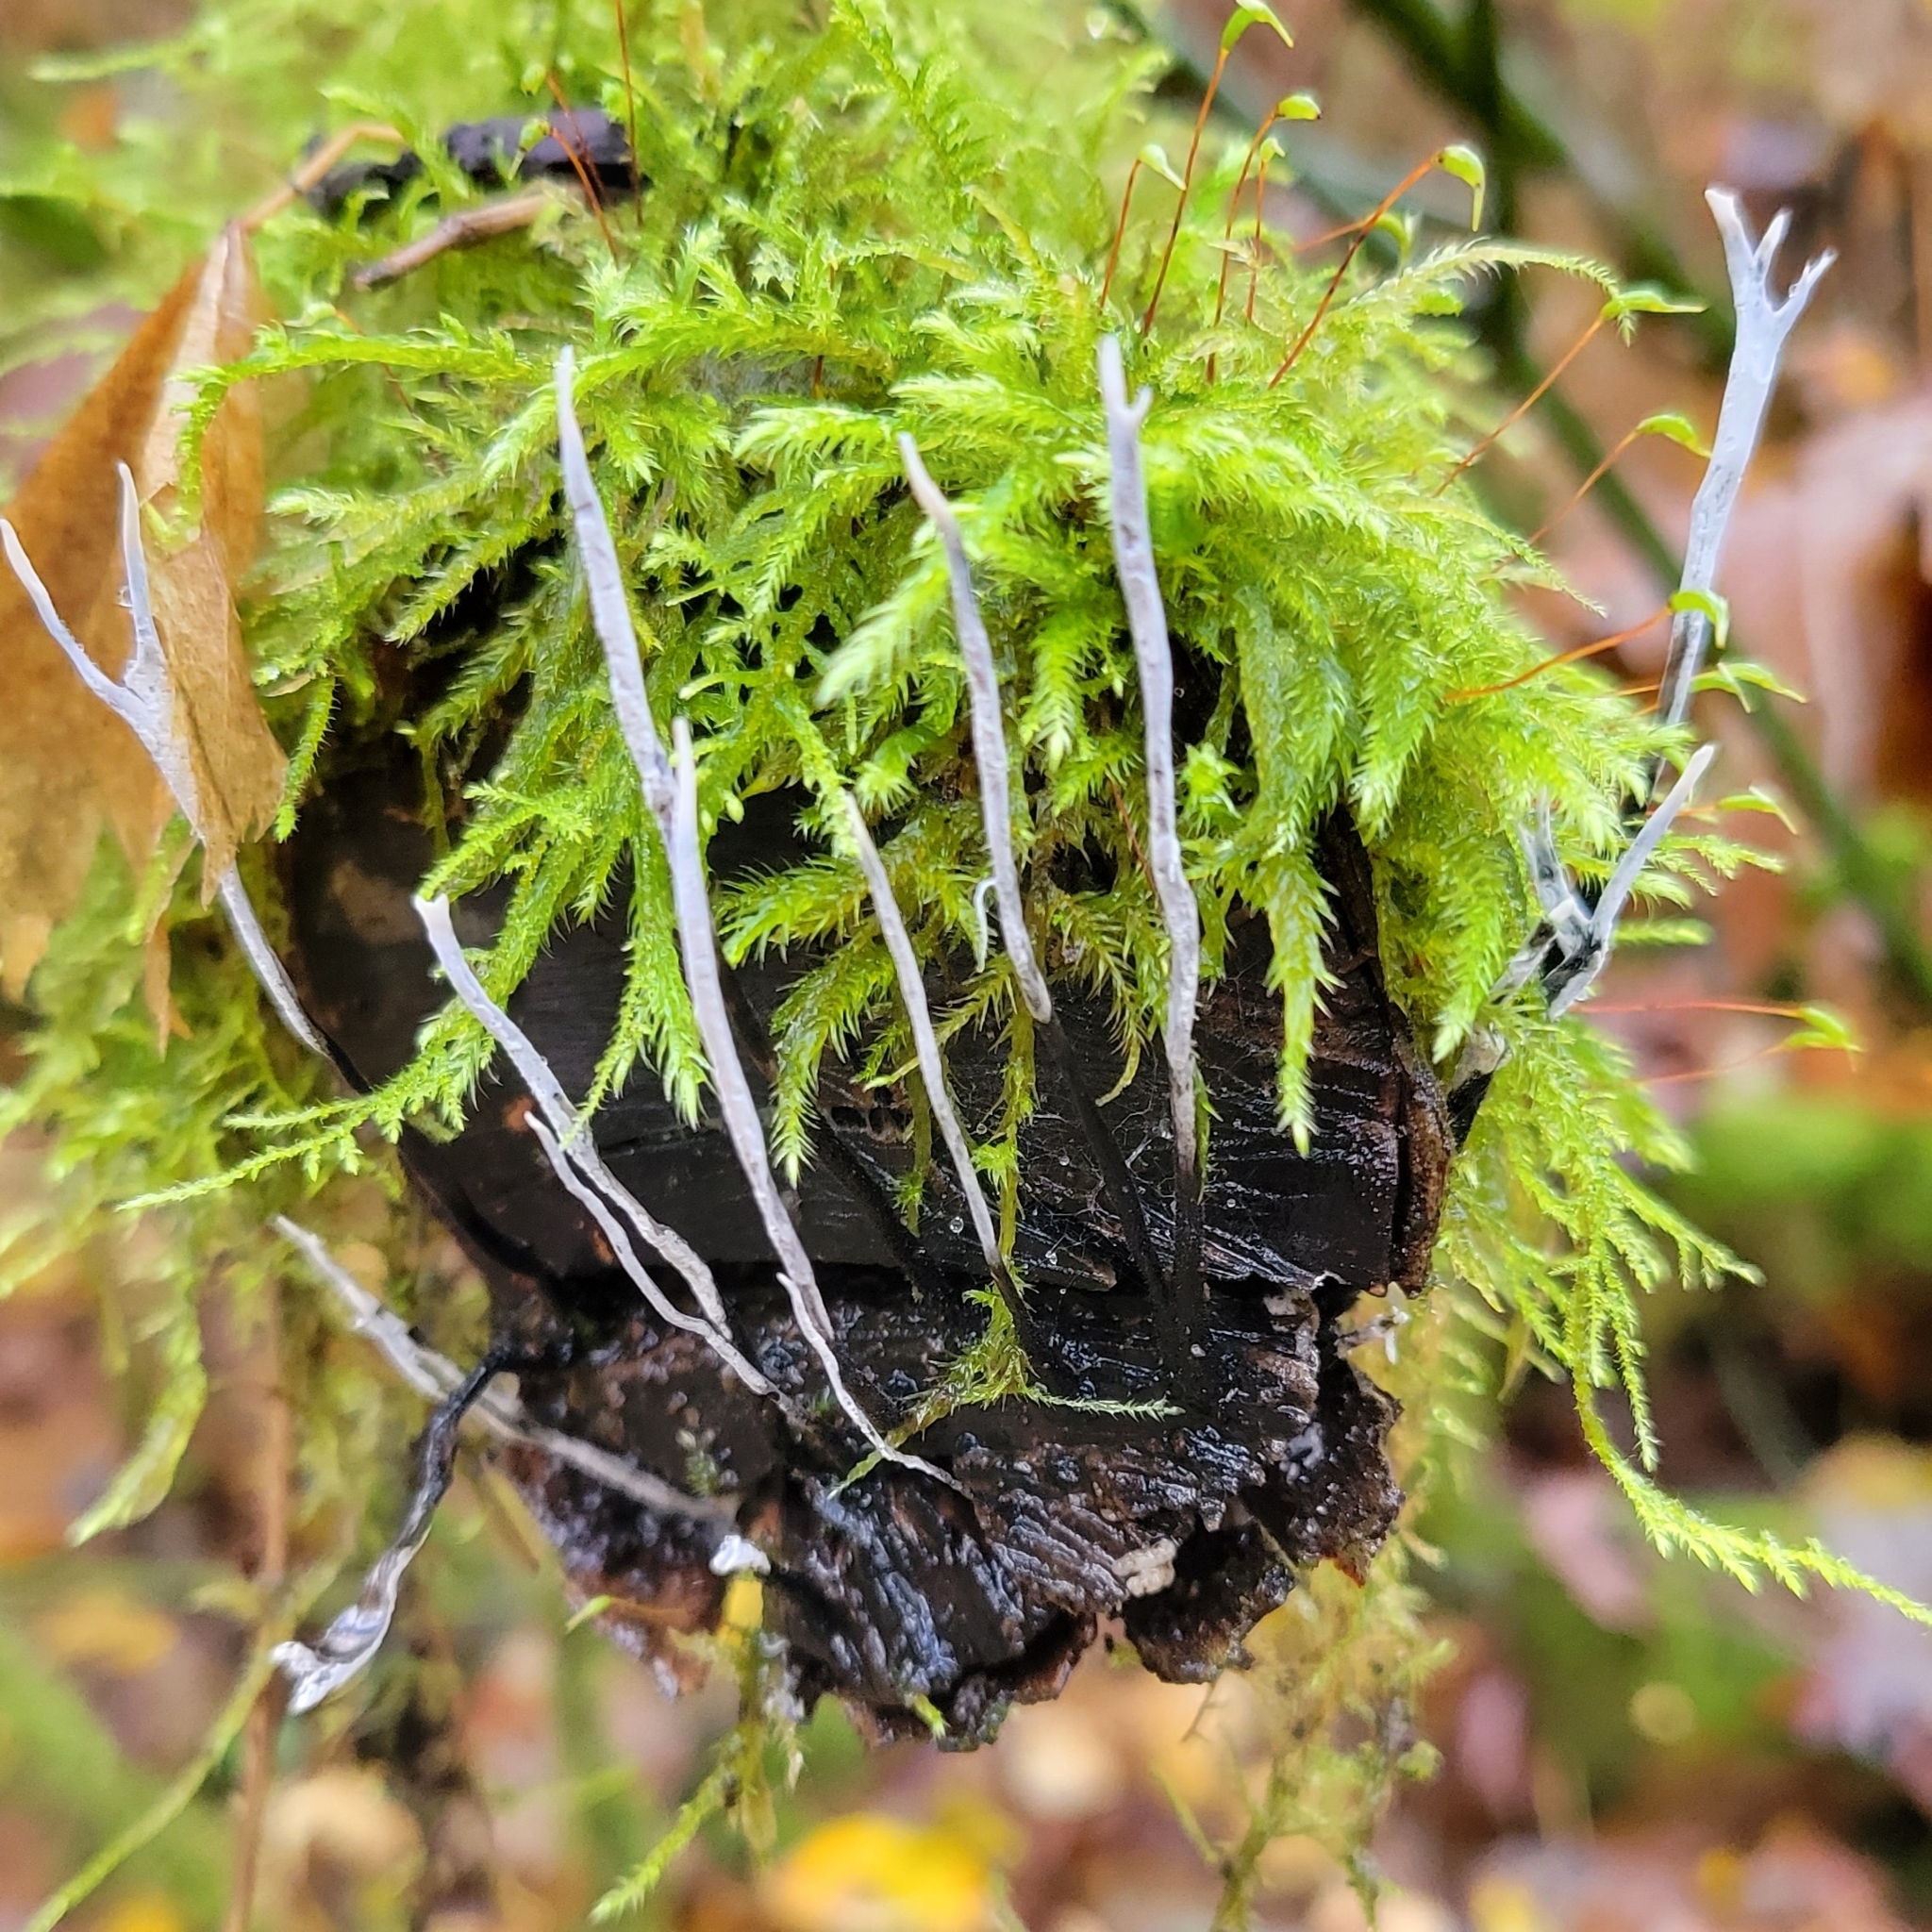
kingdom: Fungi
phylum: Ascomycota
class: Sordariomycetes
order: Xylariales
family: Xylariaceae
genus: Xylaria
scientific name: Xylaria hypoxylon
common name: Candle-snuff fungus
